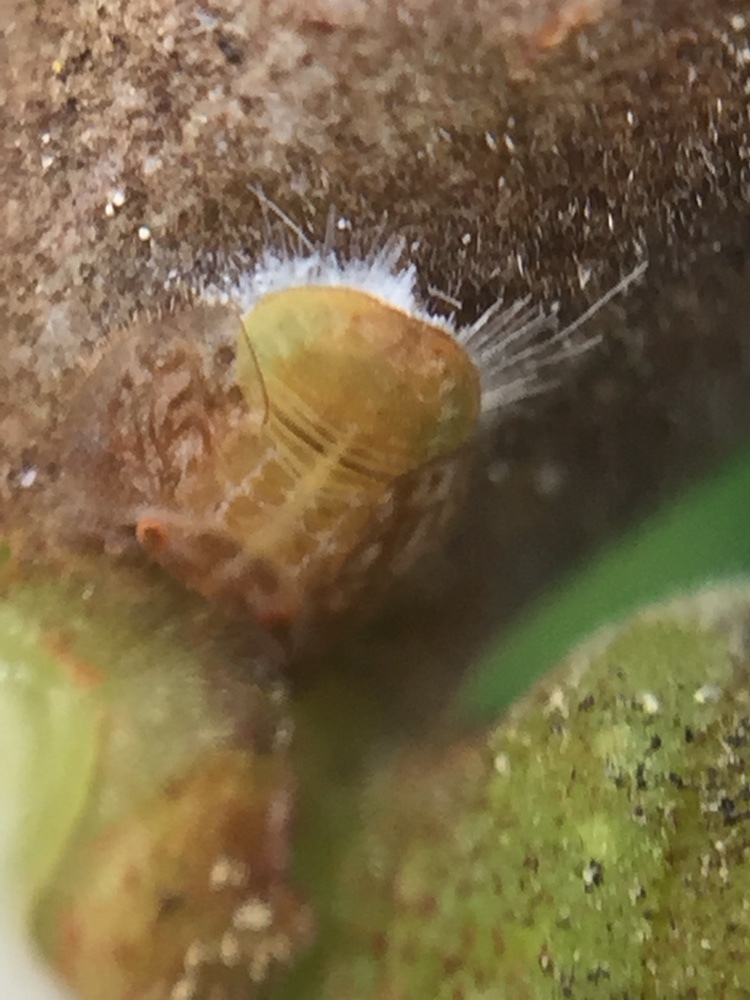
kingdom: Animalia
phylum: Arthropoda
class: Insecta
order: Hemiptera
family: Homotomidae
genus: Mycopsylla
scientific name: Mycopsylla obliqua
